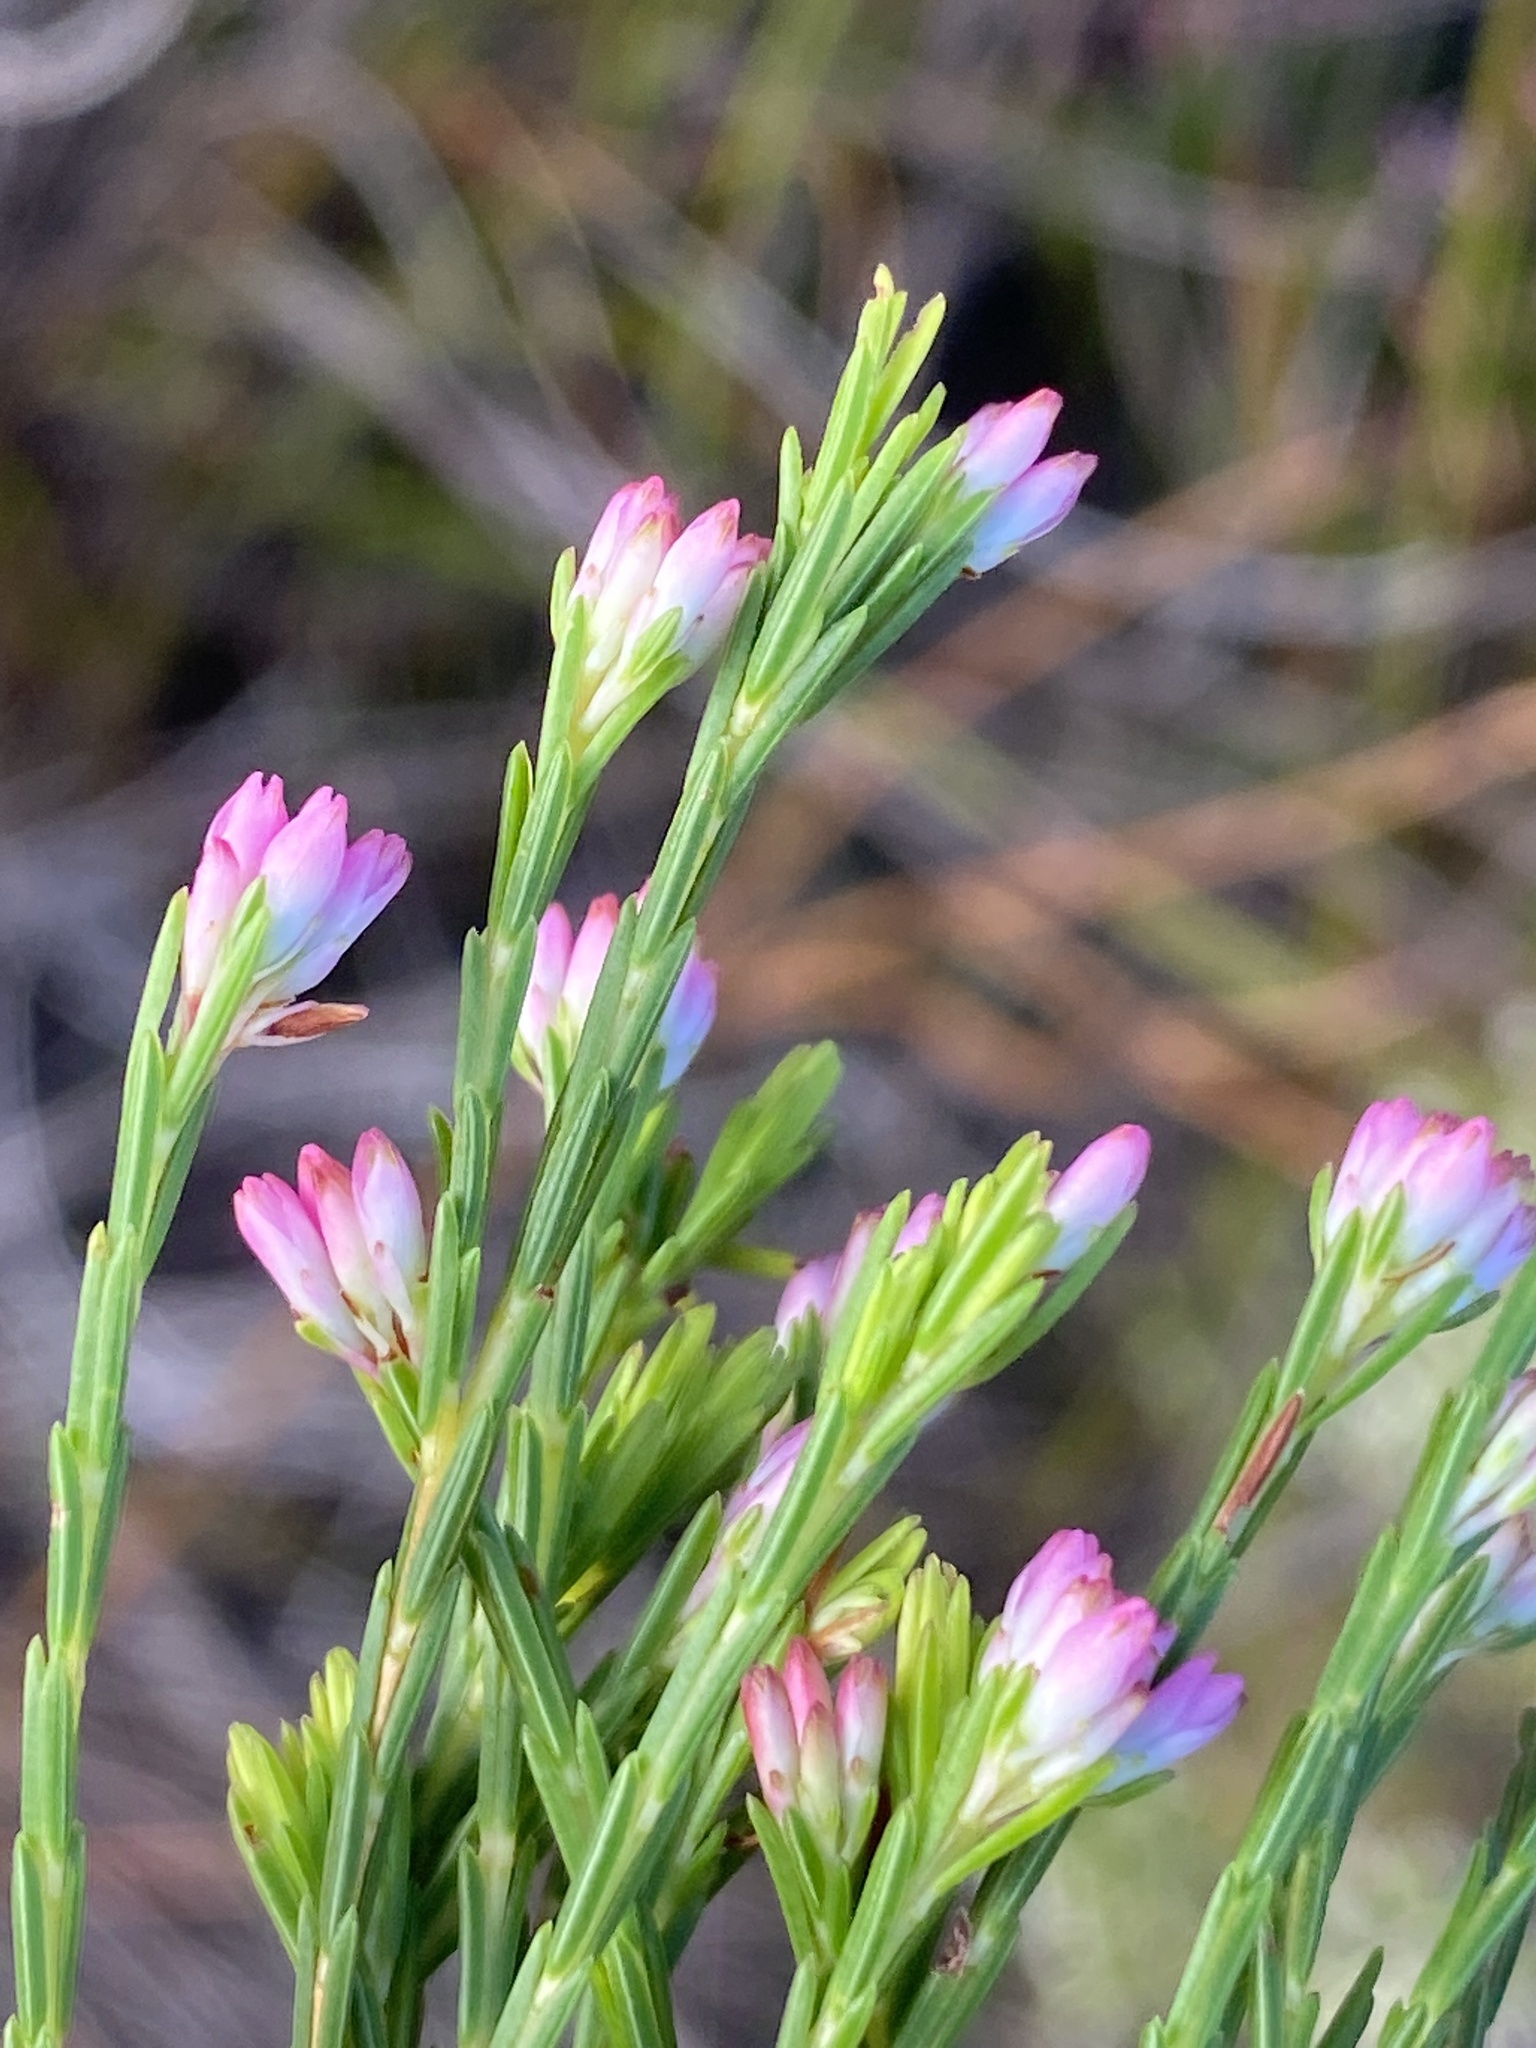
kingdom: Plantae
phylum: Tracheophyta
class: Magnoliopsida
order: Ericales
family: Ericaceae
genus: Erica
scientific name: Erica corifolia
